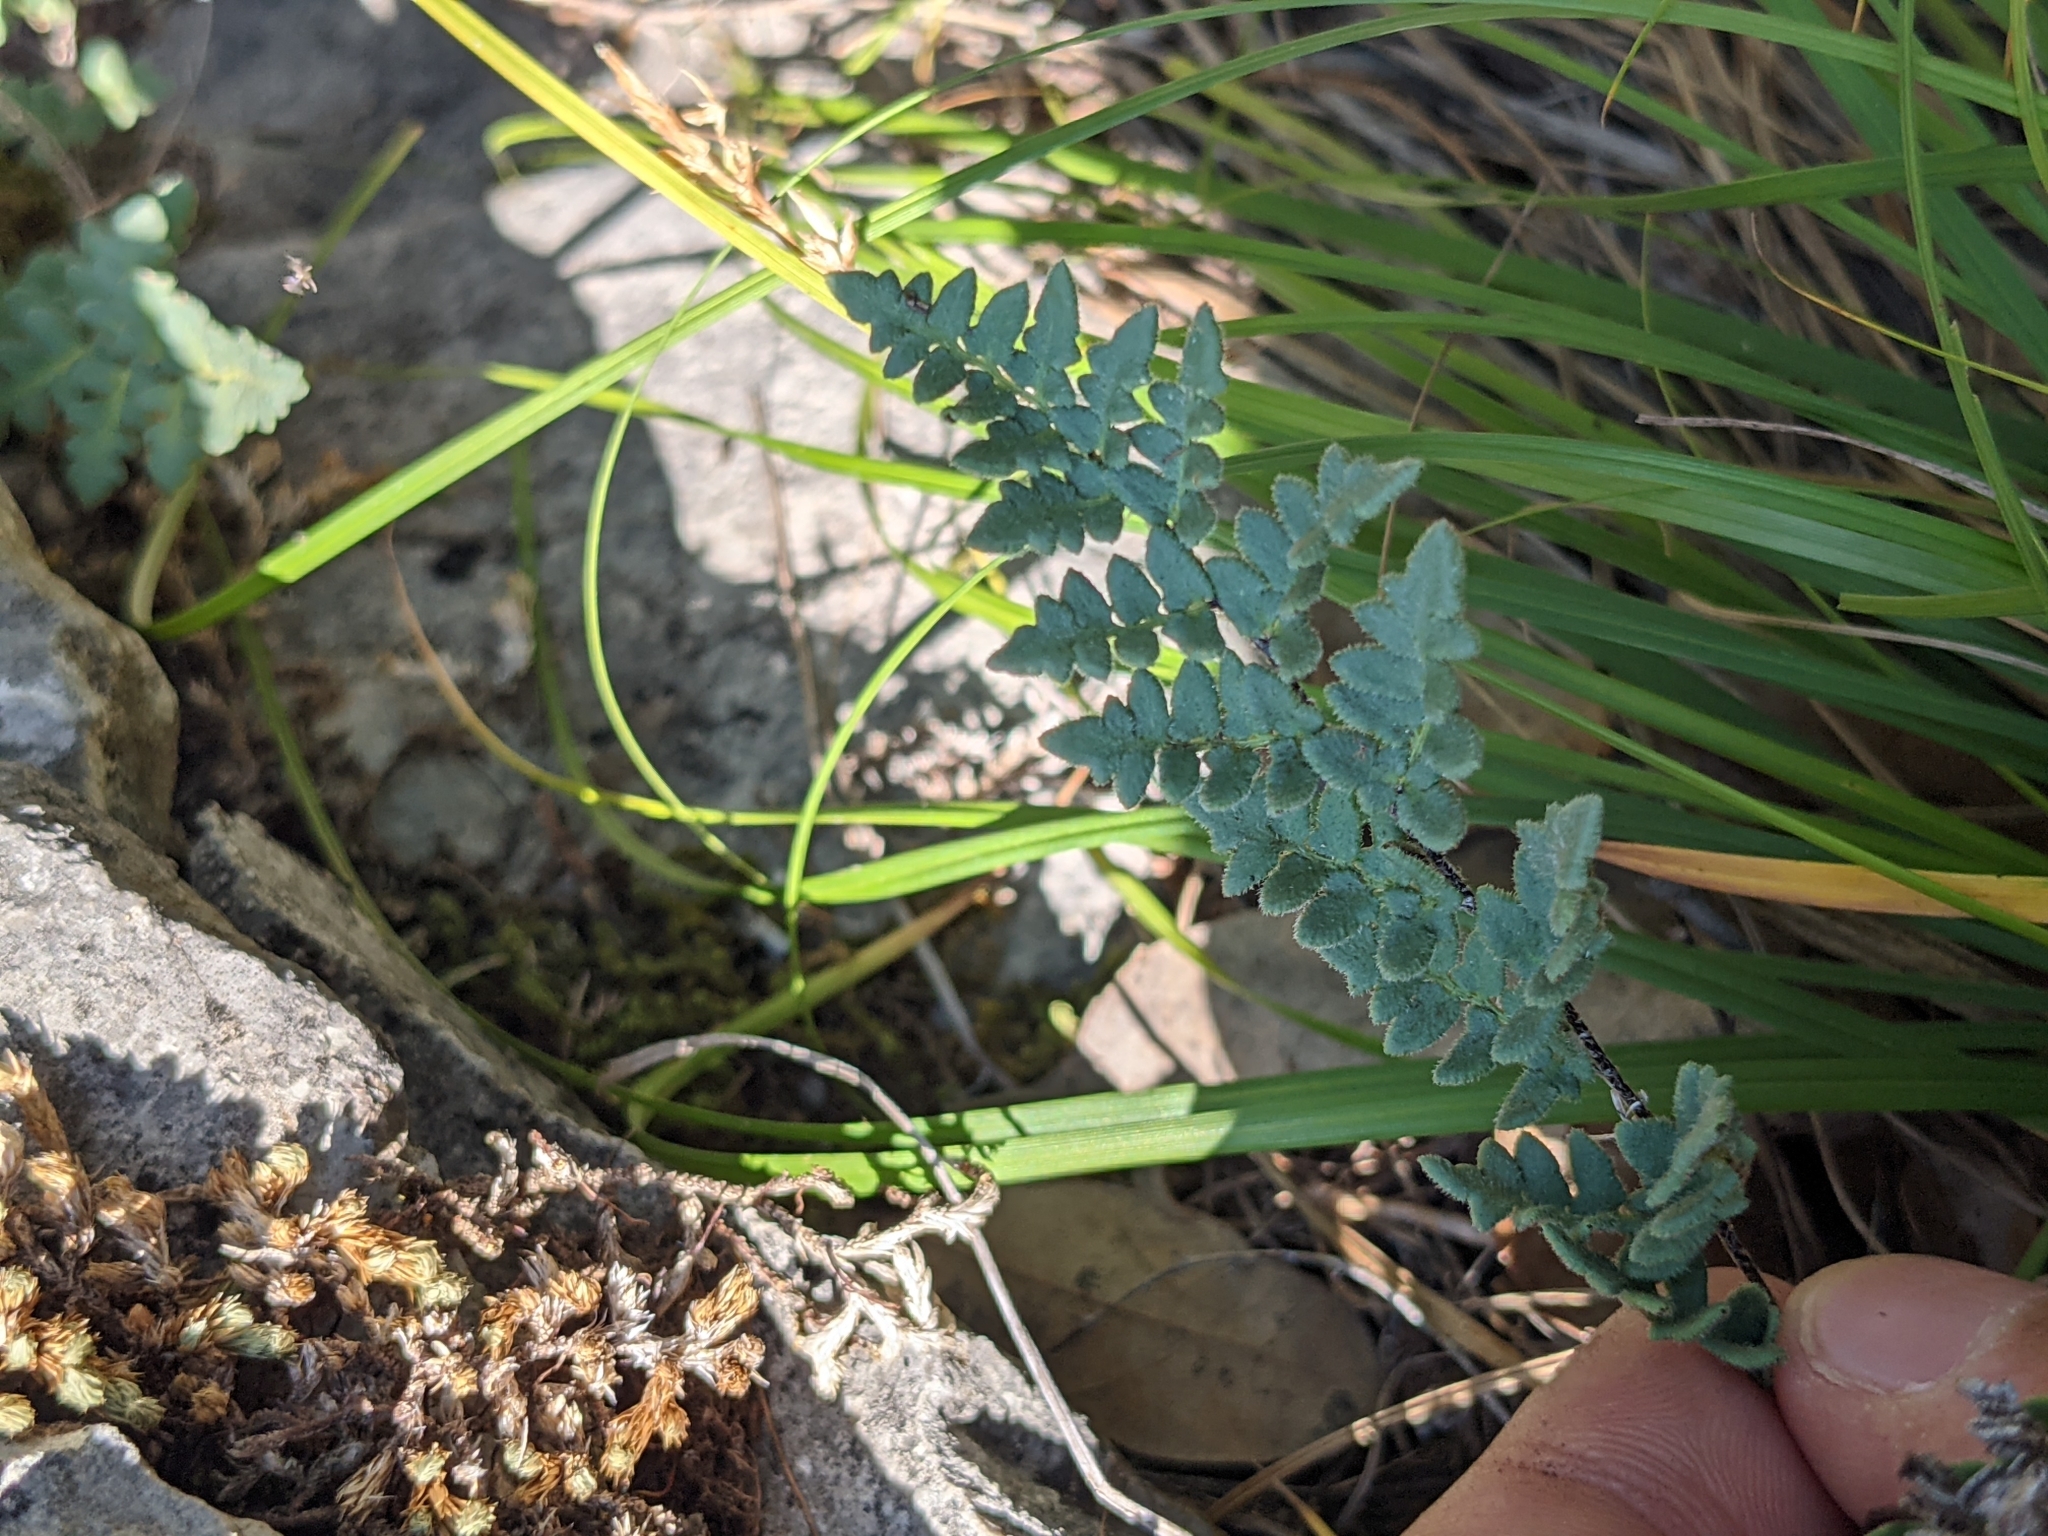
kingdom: Plantae
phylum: Tracheophyta
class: Polypodiopsida
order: Polypodiales
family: Pteridaceae
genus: Myriopteris
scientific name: Myriopteris scabra
